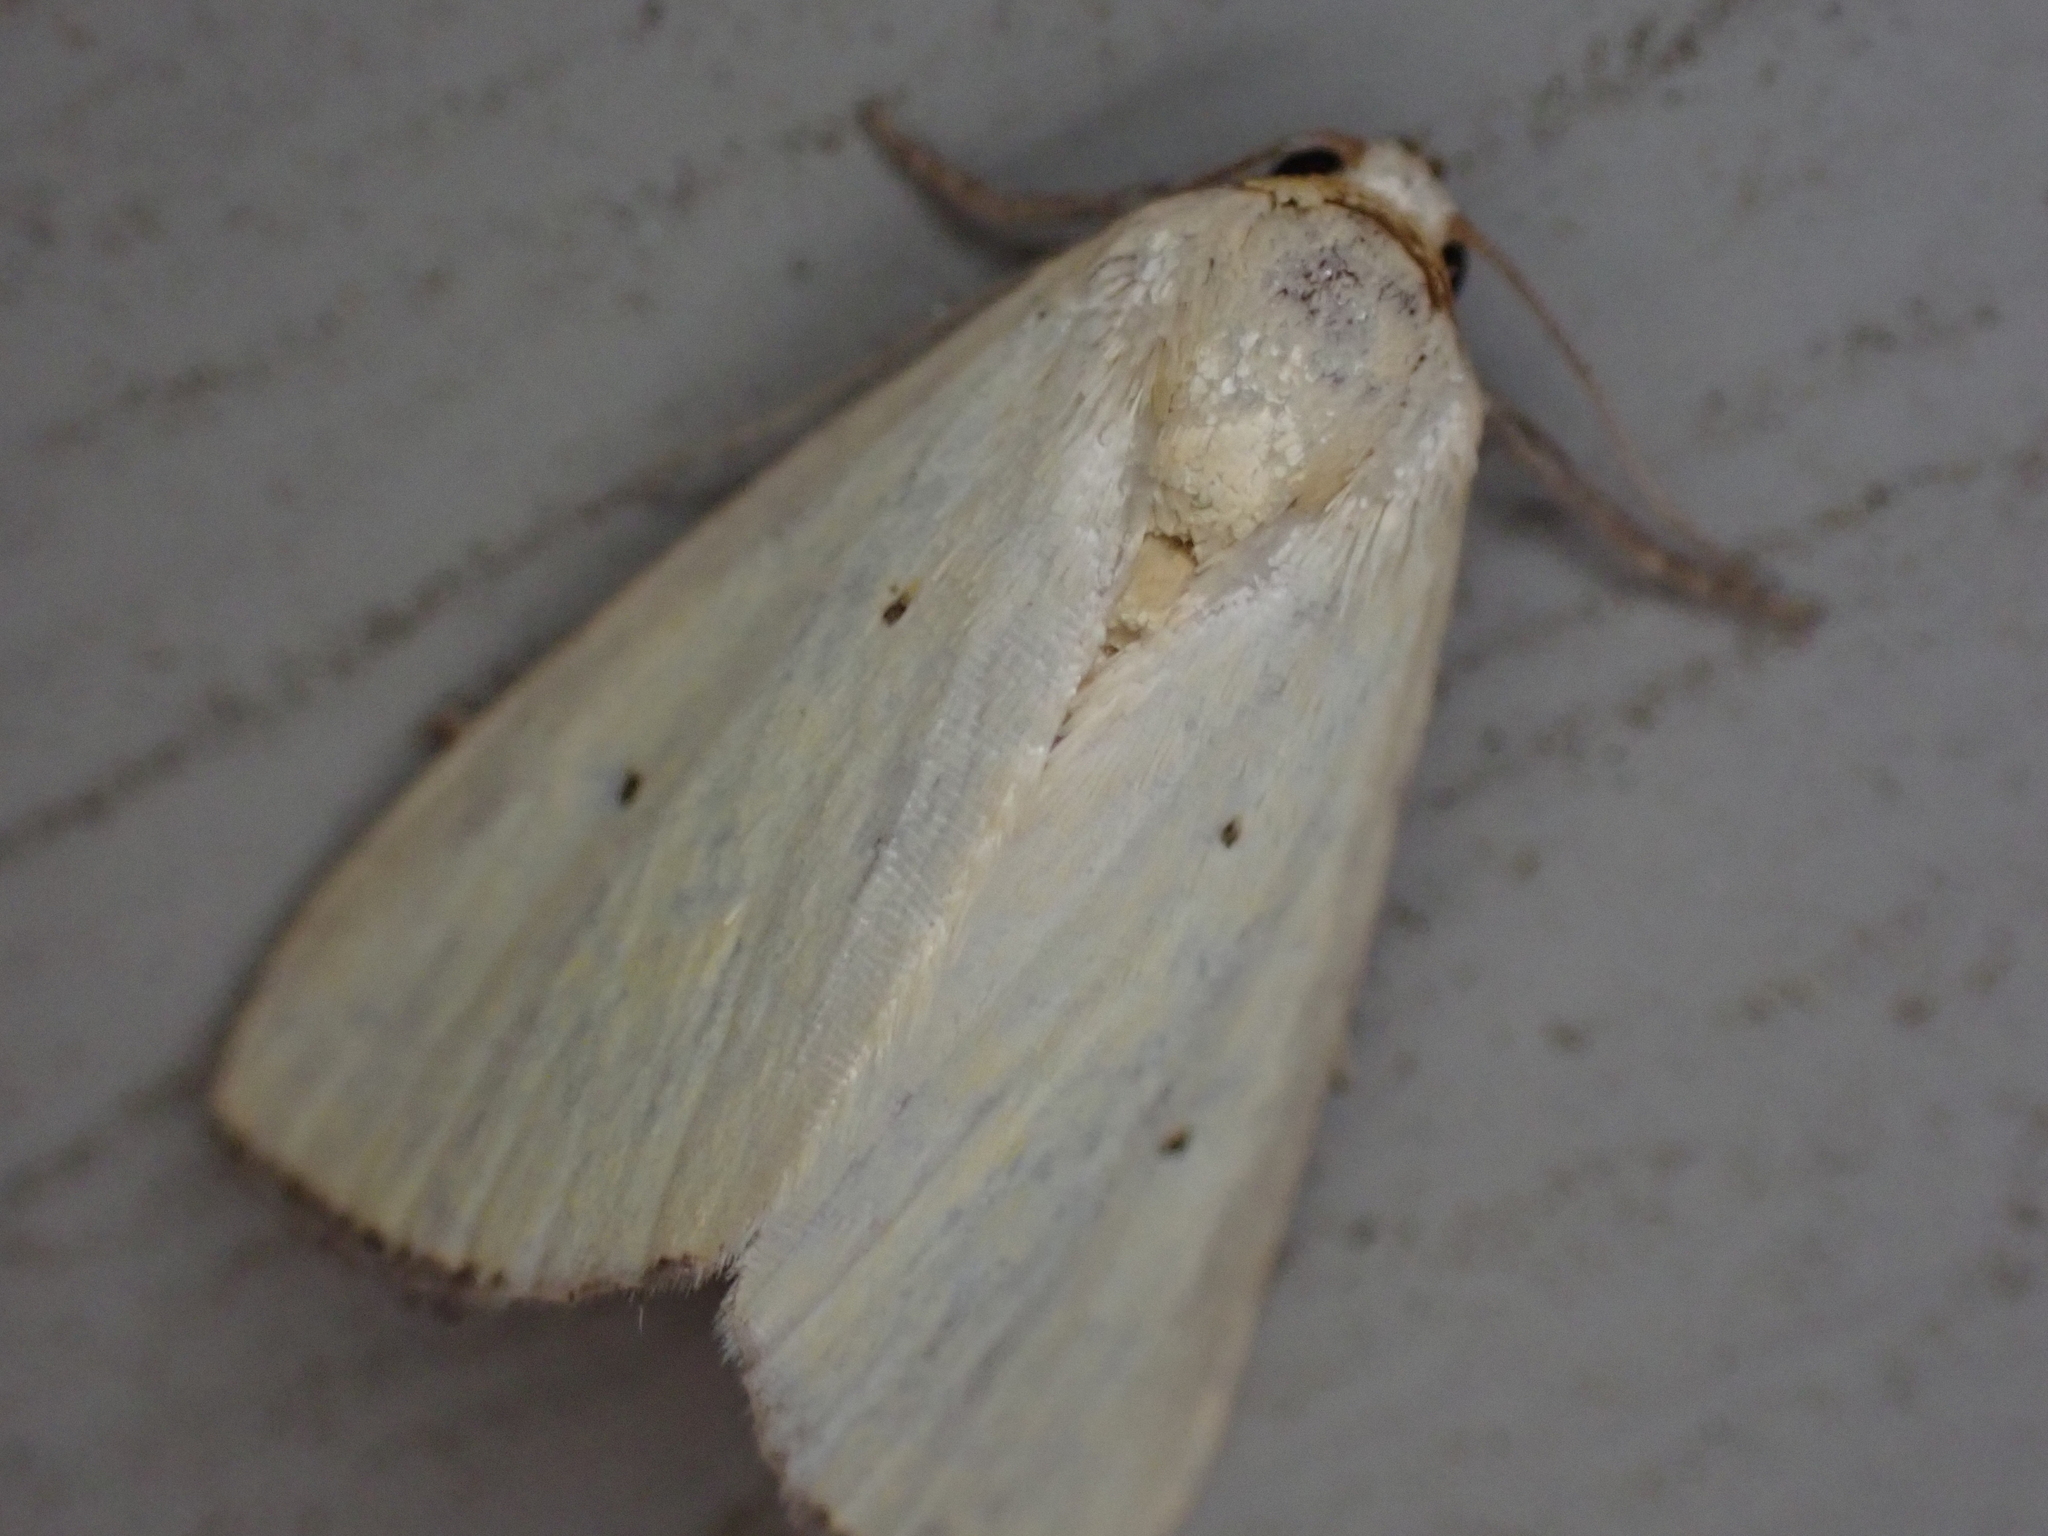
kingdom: Animalia
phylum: Arthropoda
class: Insecta
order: Lepidoptera
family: Noctuidae
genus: Marimatha
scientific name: Marimatha nigrofimbria
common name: Black-bordered lemon moth
